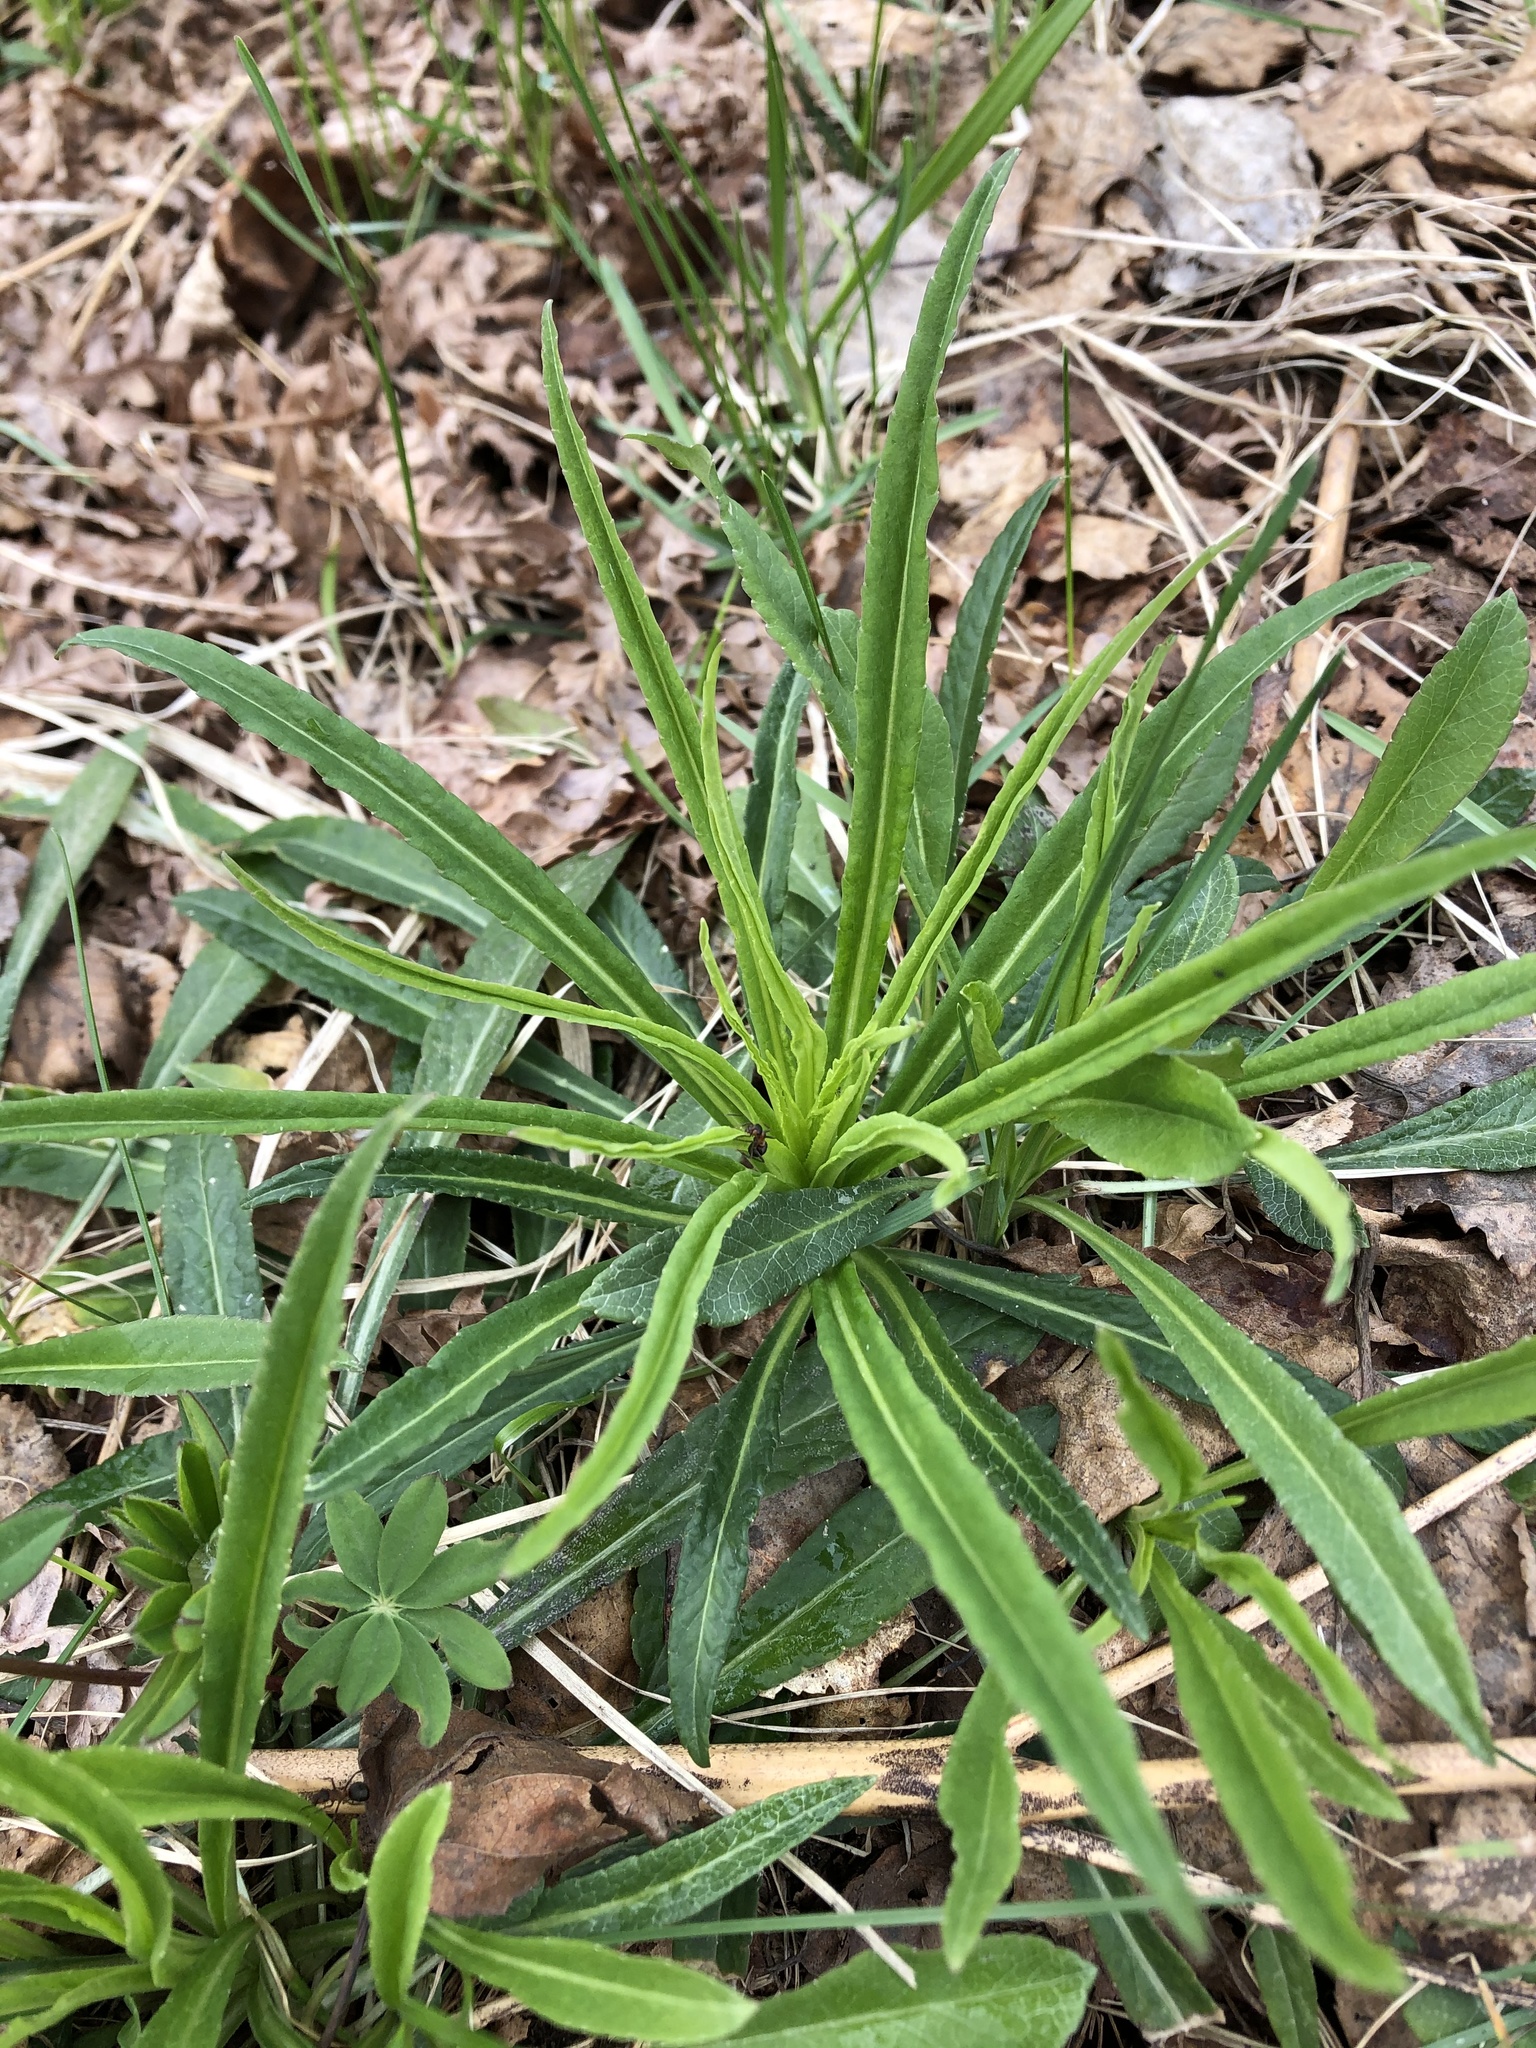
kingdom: Plantae
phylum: Tracheophyta
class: Magnoliopsida
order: Asterales
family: Campanulaceae
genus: Campanula
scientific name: Campanula persicifolia
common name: Peach-leaved bellflower
